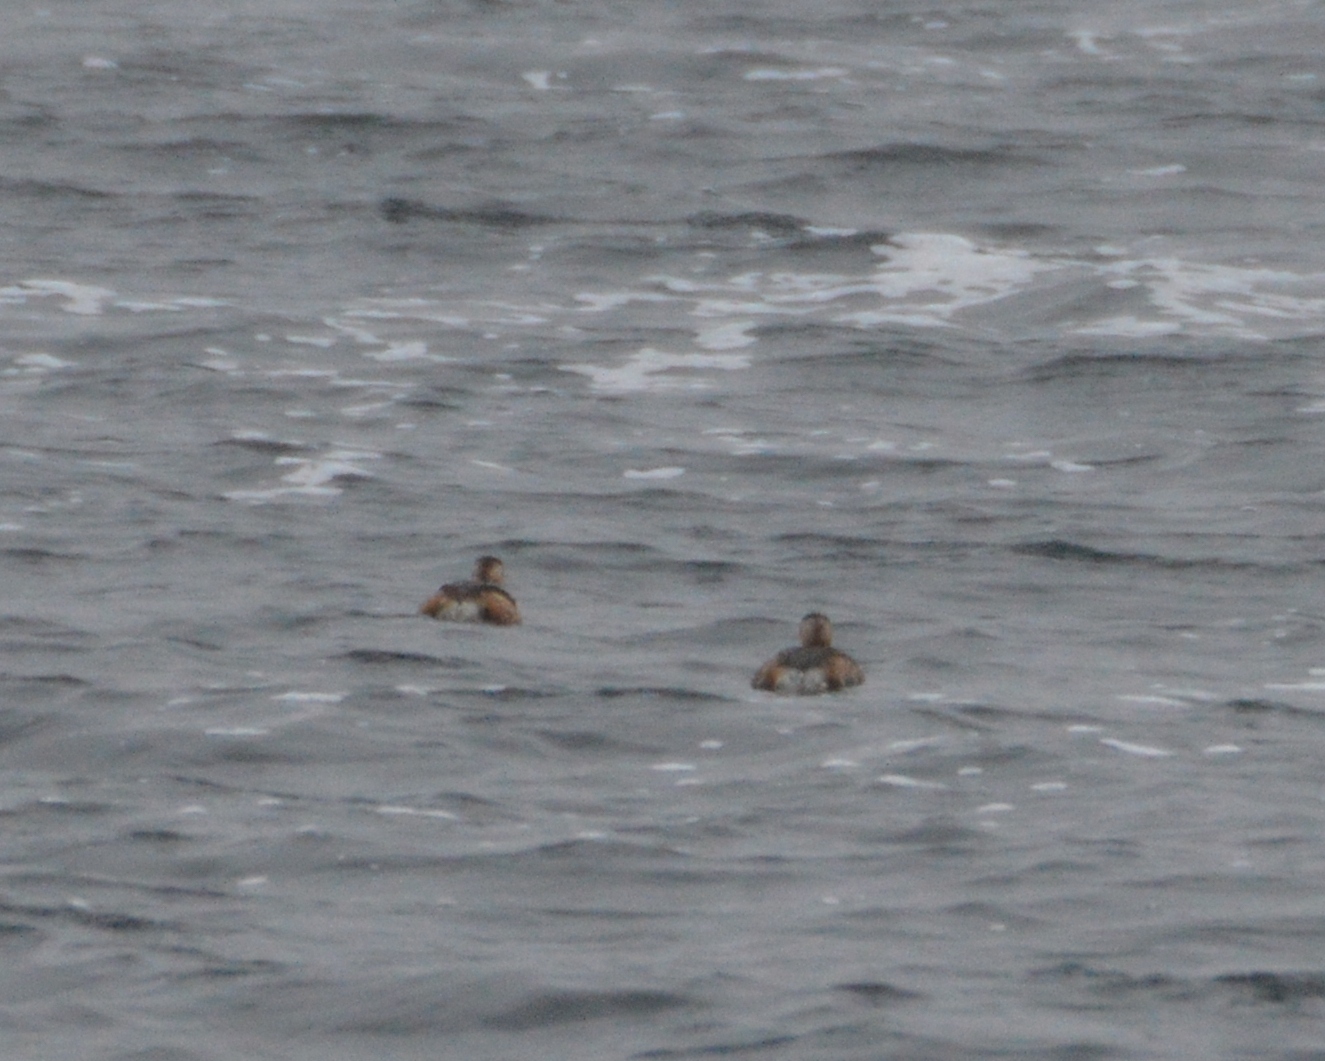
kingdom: Animalia
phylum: Chordata
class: Aves
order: Podicipediformes
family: Podicipedidae
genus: Tachybaptus
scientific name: Tachybaptus ruficollis
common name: Little grebe
